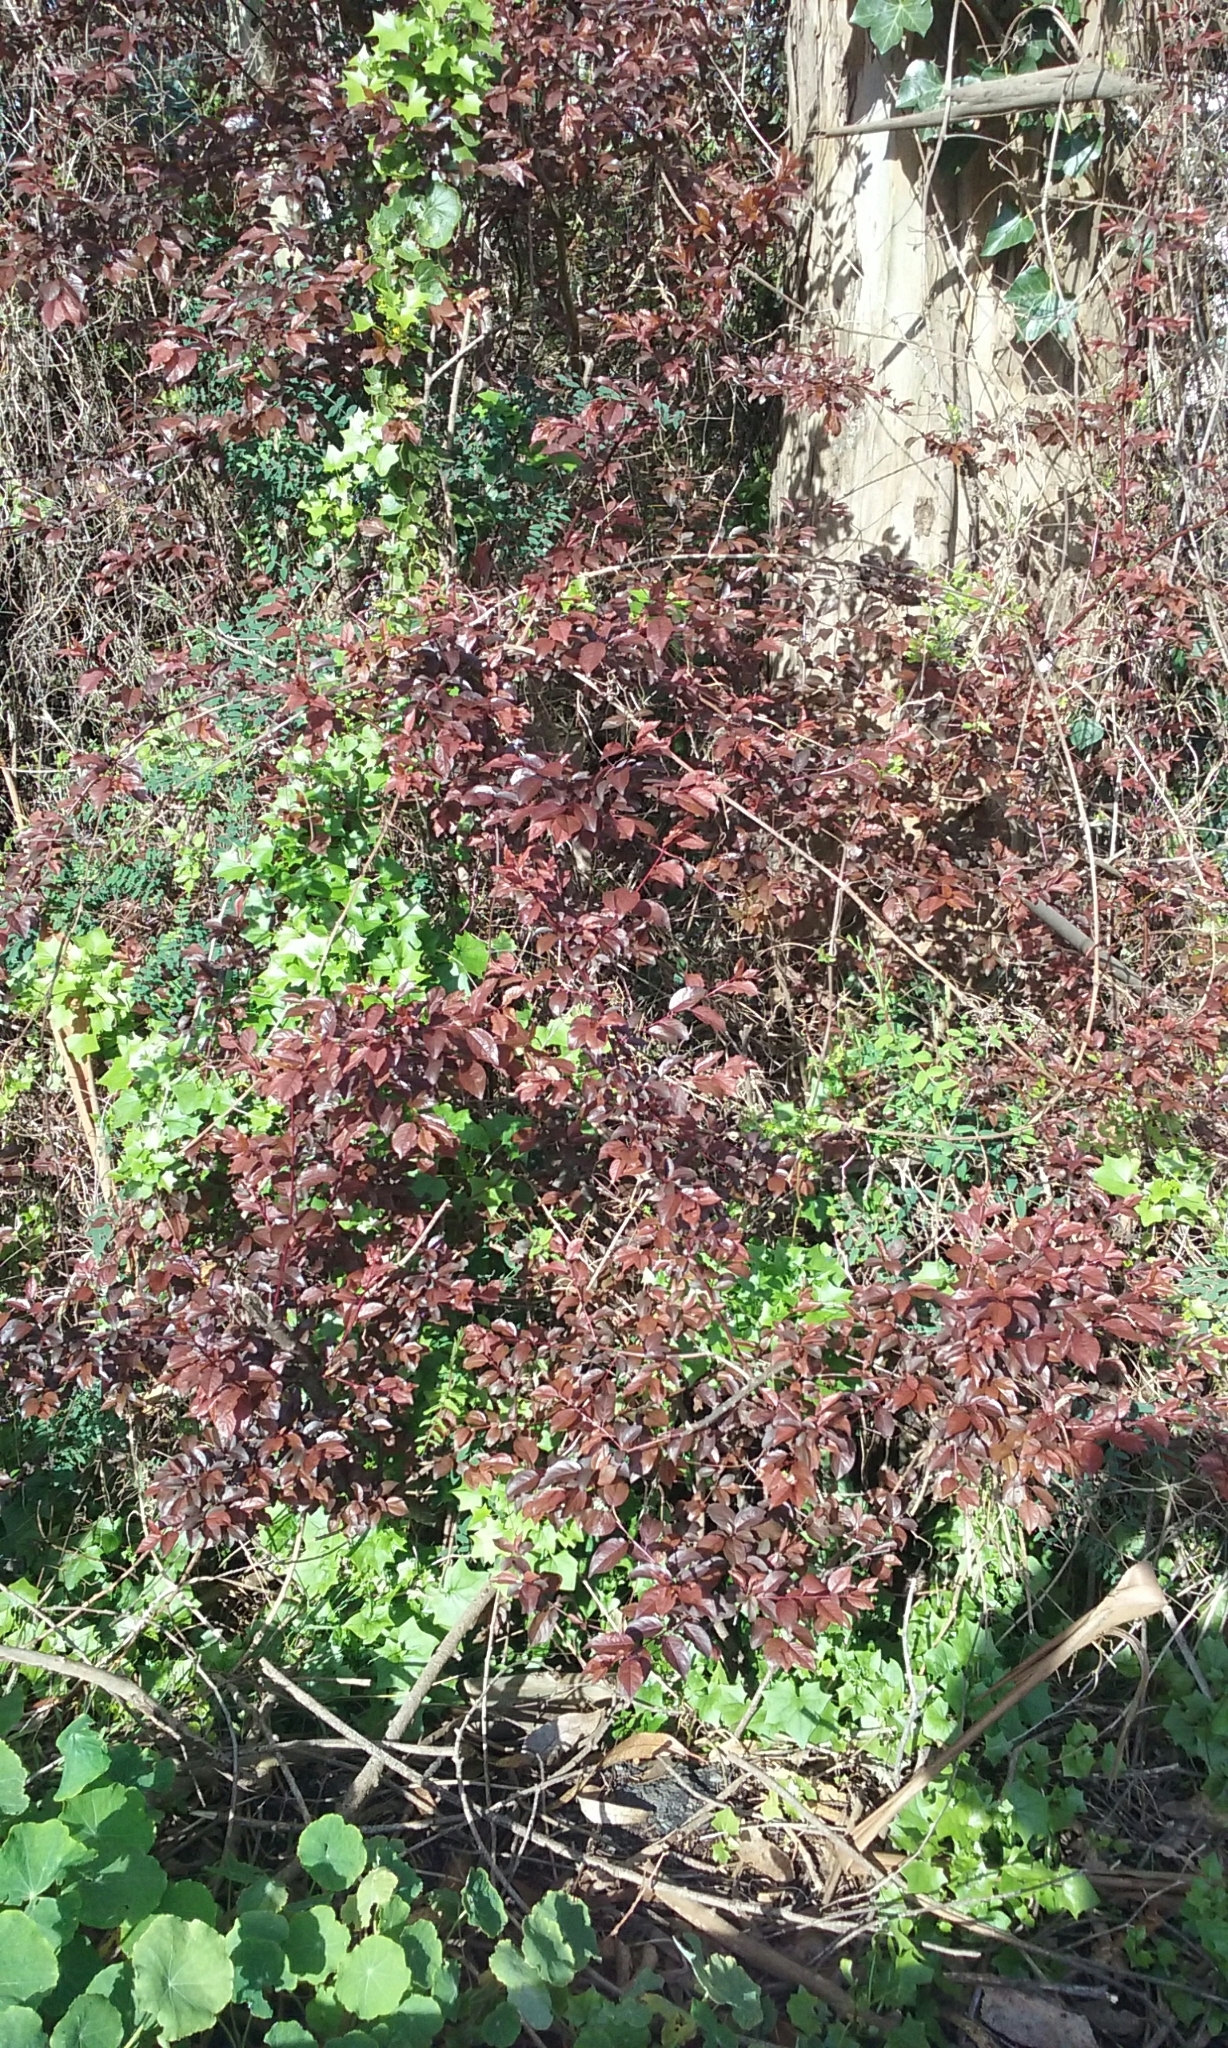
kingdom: Plantae
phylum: Tracheophyta
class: Magnoliopsida
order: Rosales
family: Rosaceae
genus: Prunus
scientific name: Prunus cerasifera
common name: Cherry plum
